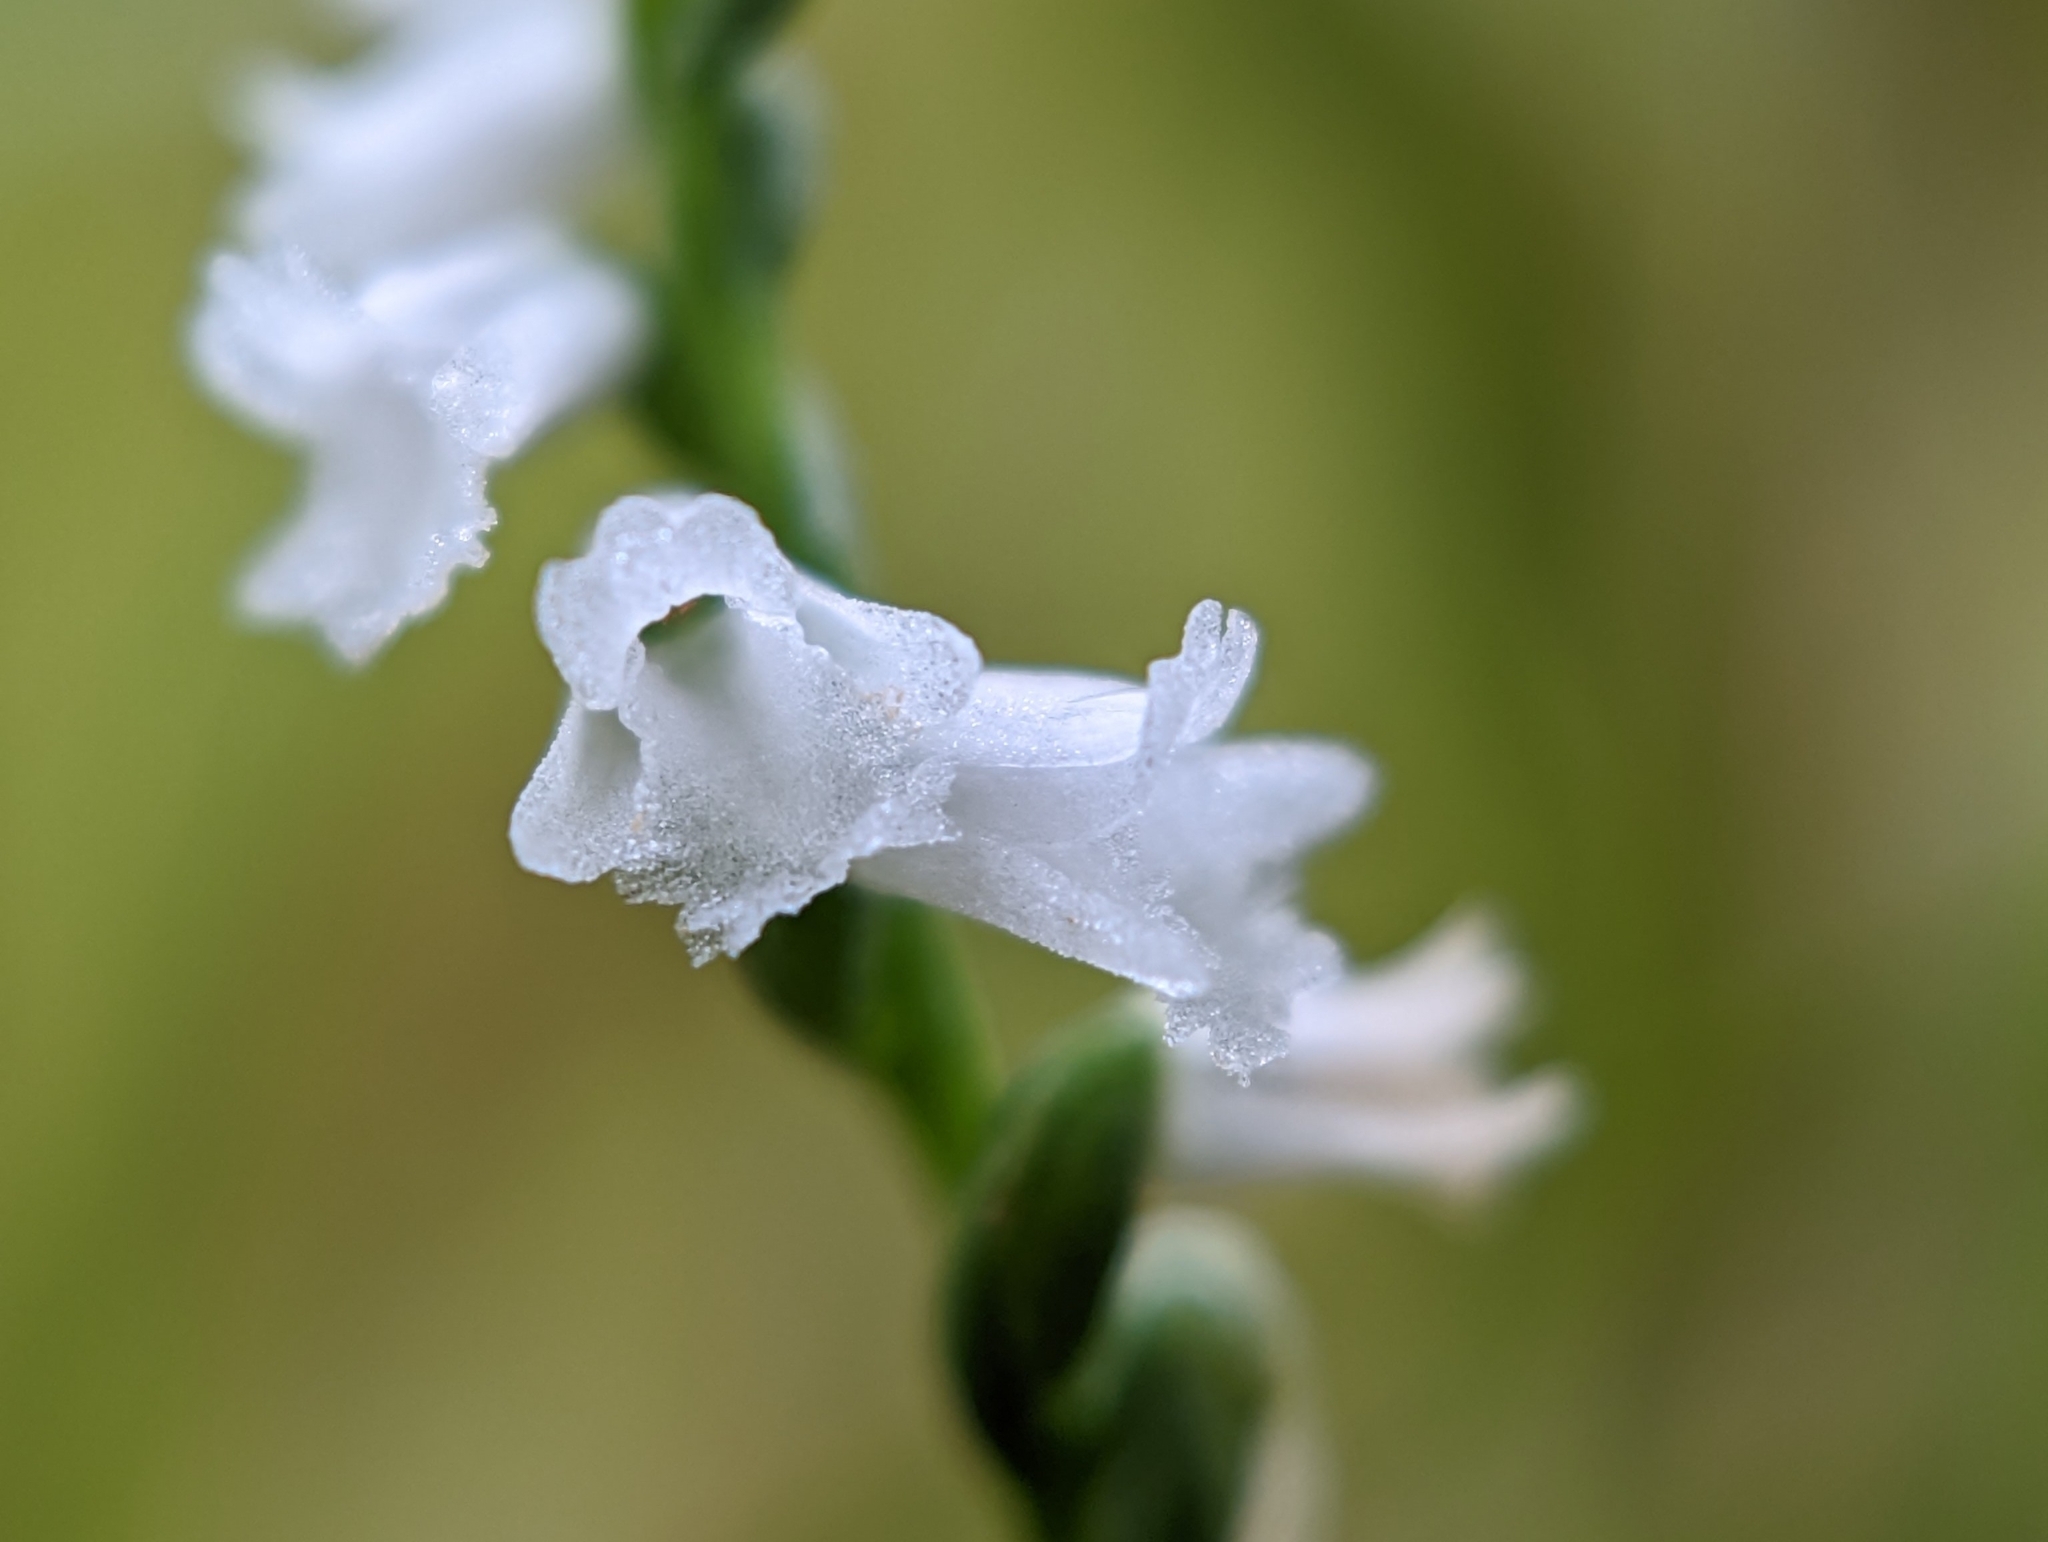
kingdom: Plantae
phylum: Tracheophyta
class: Liliopsida
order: Asparagales
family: Orchidaceae
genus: Spiranthes
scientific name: Spiranthes tuberosa
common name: Little ladies'-tresses
